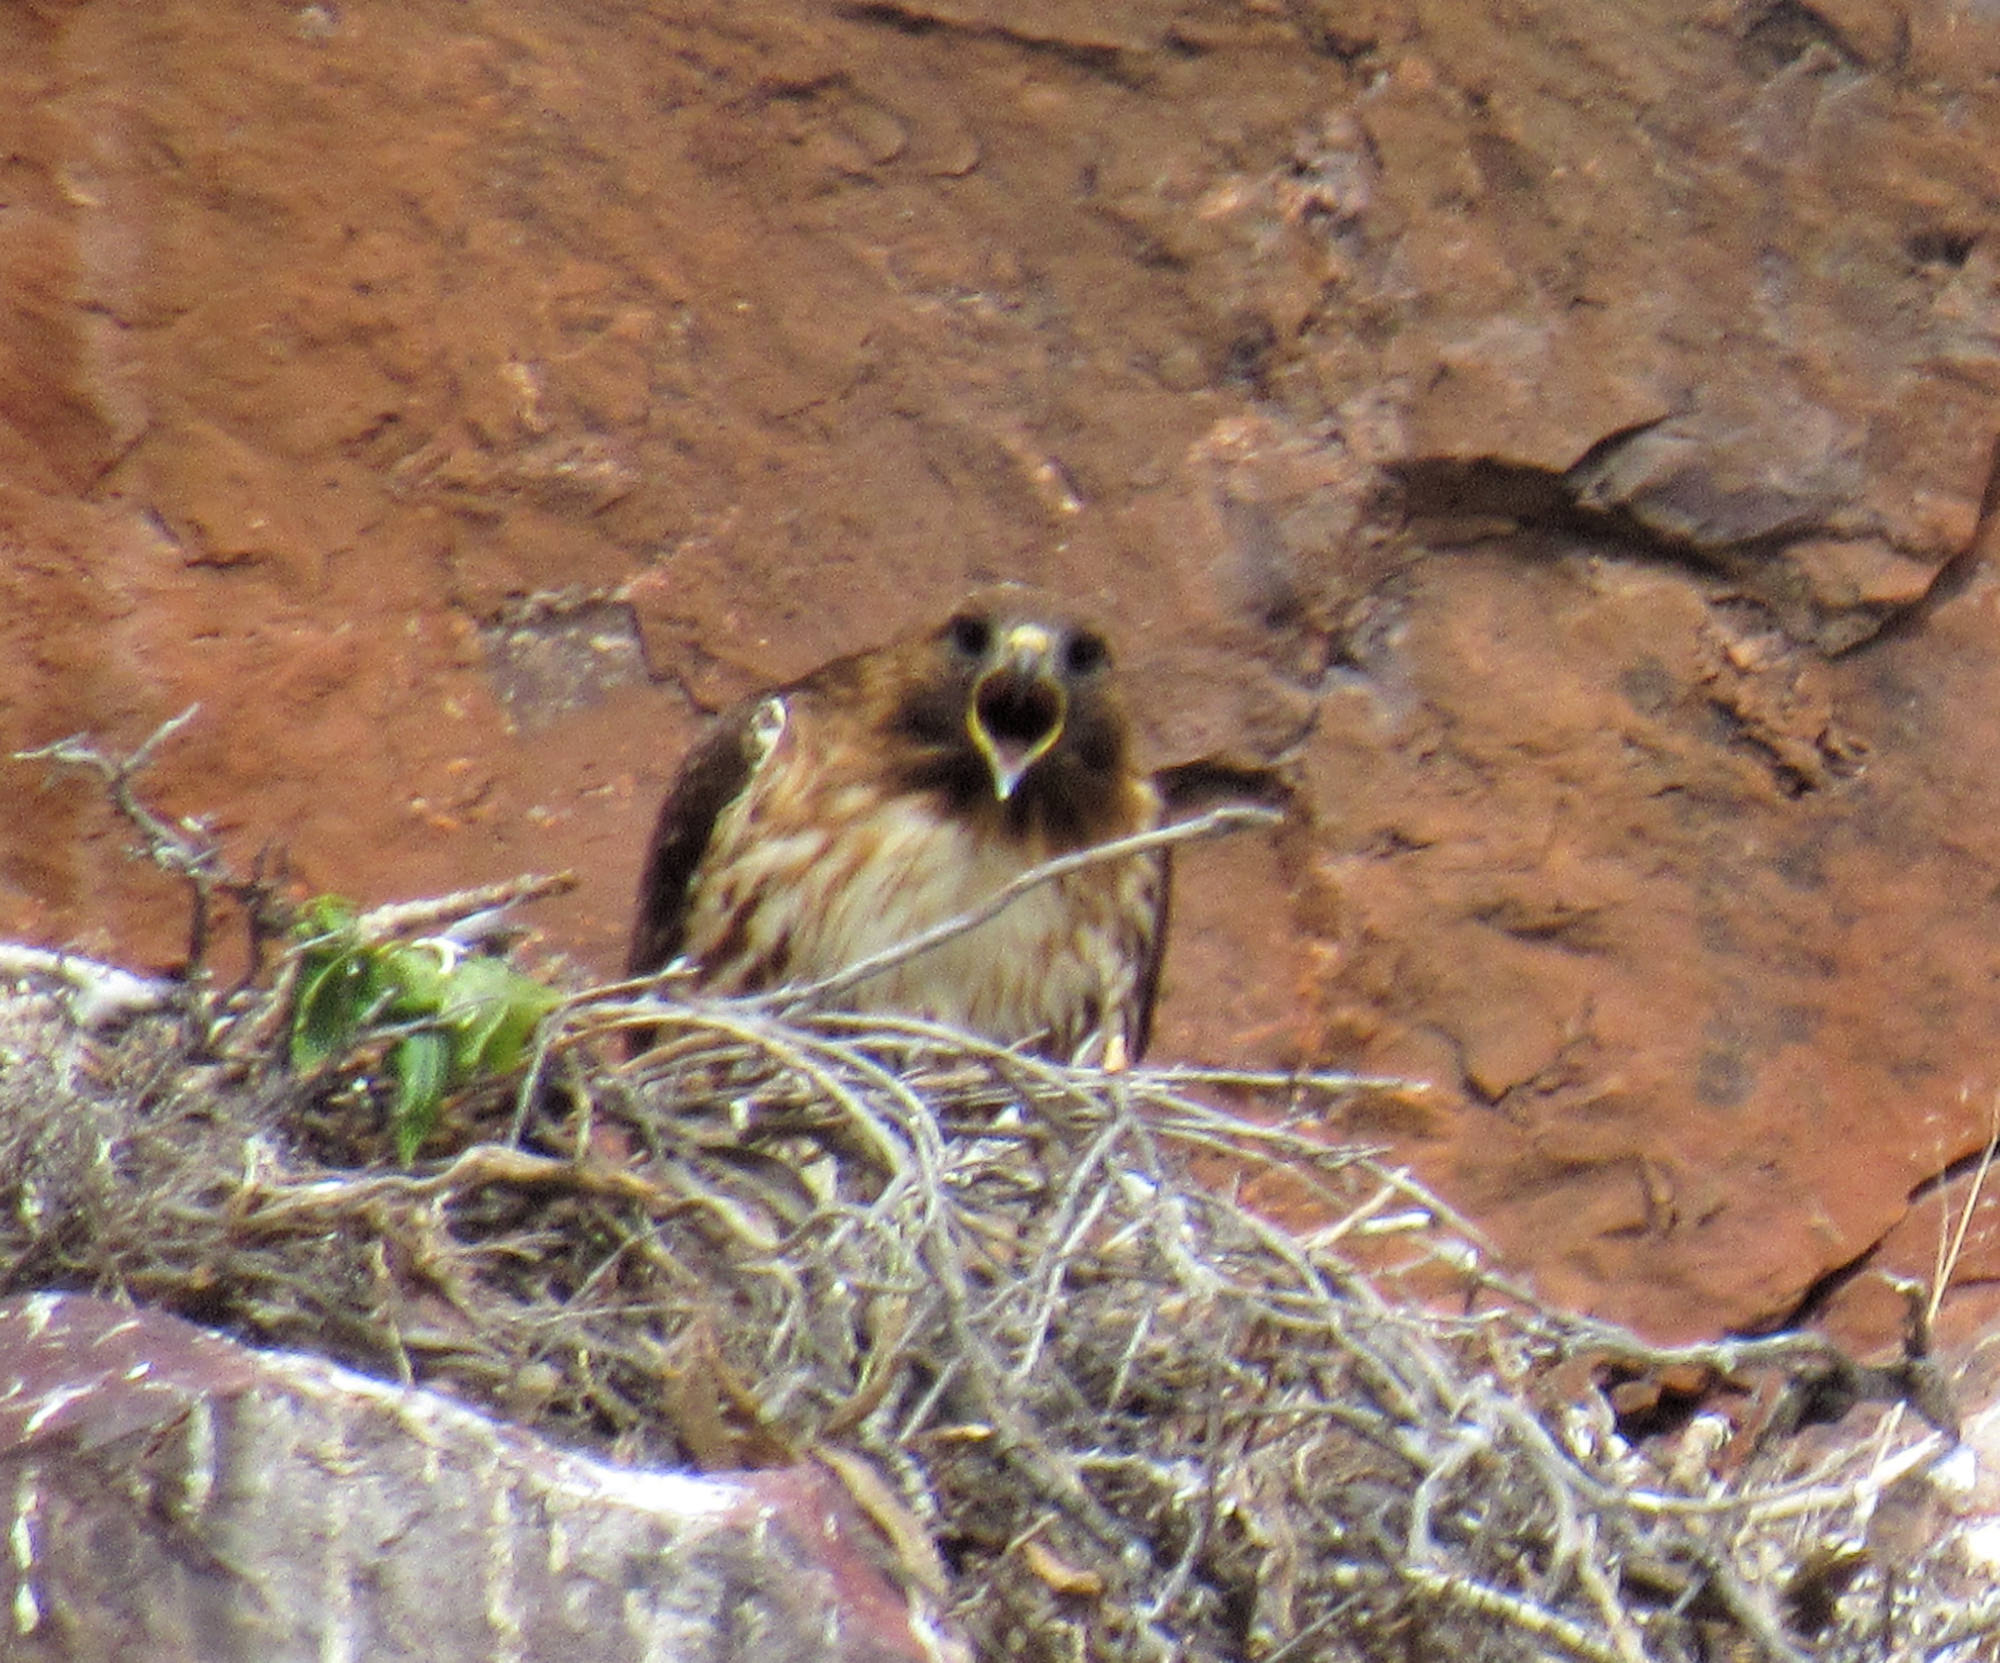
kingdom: Animalia
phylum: Chordata
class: Aves
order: Accipitriformes
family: Accipitridae
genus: Buteo
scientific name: Buteo jamaicensis
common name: Red-tailed hawk
